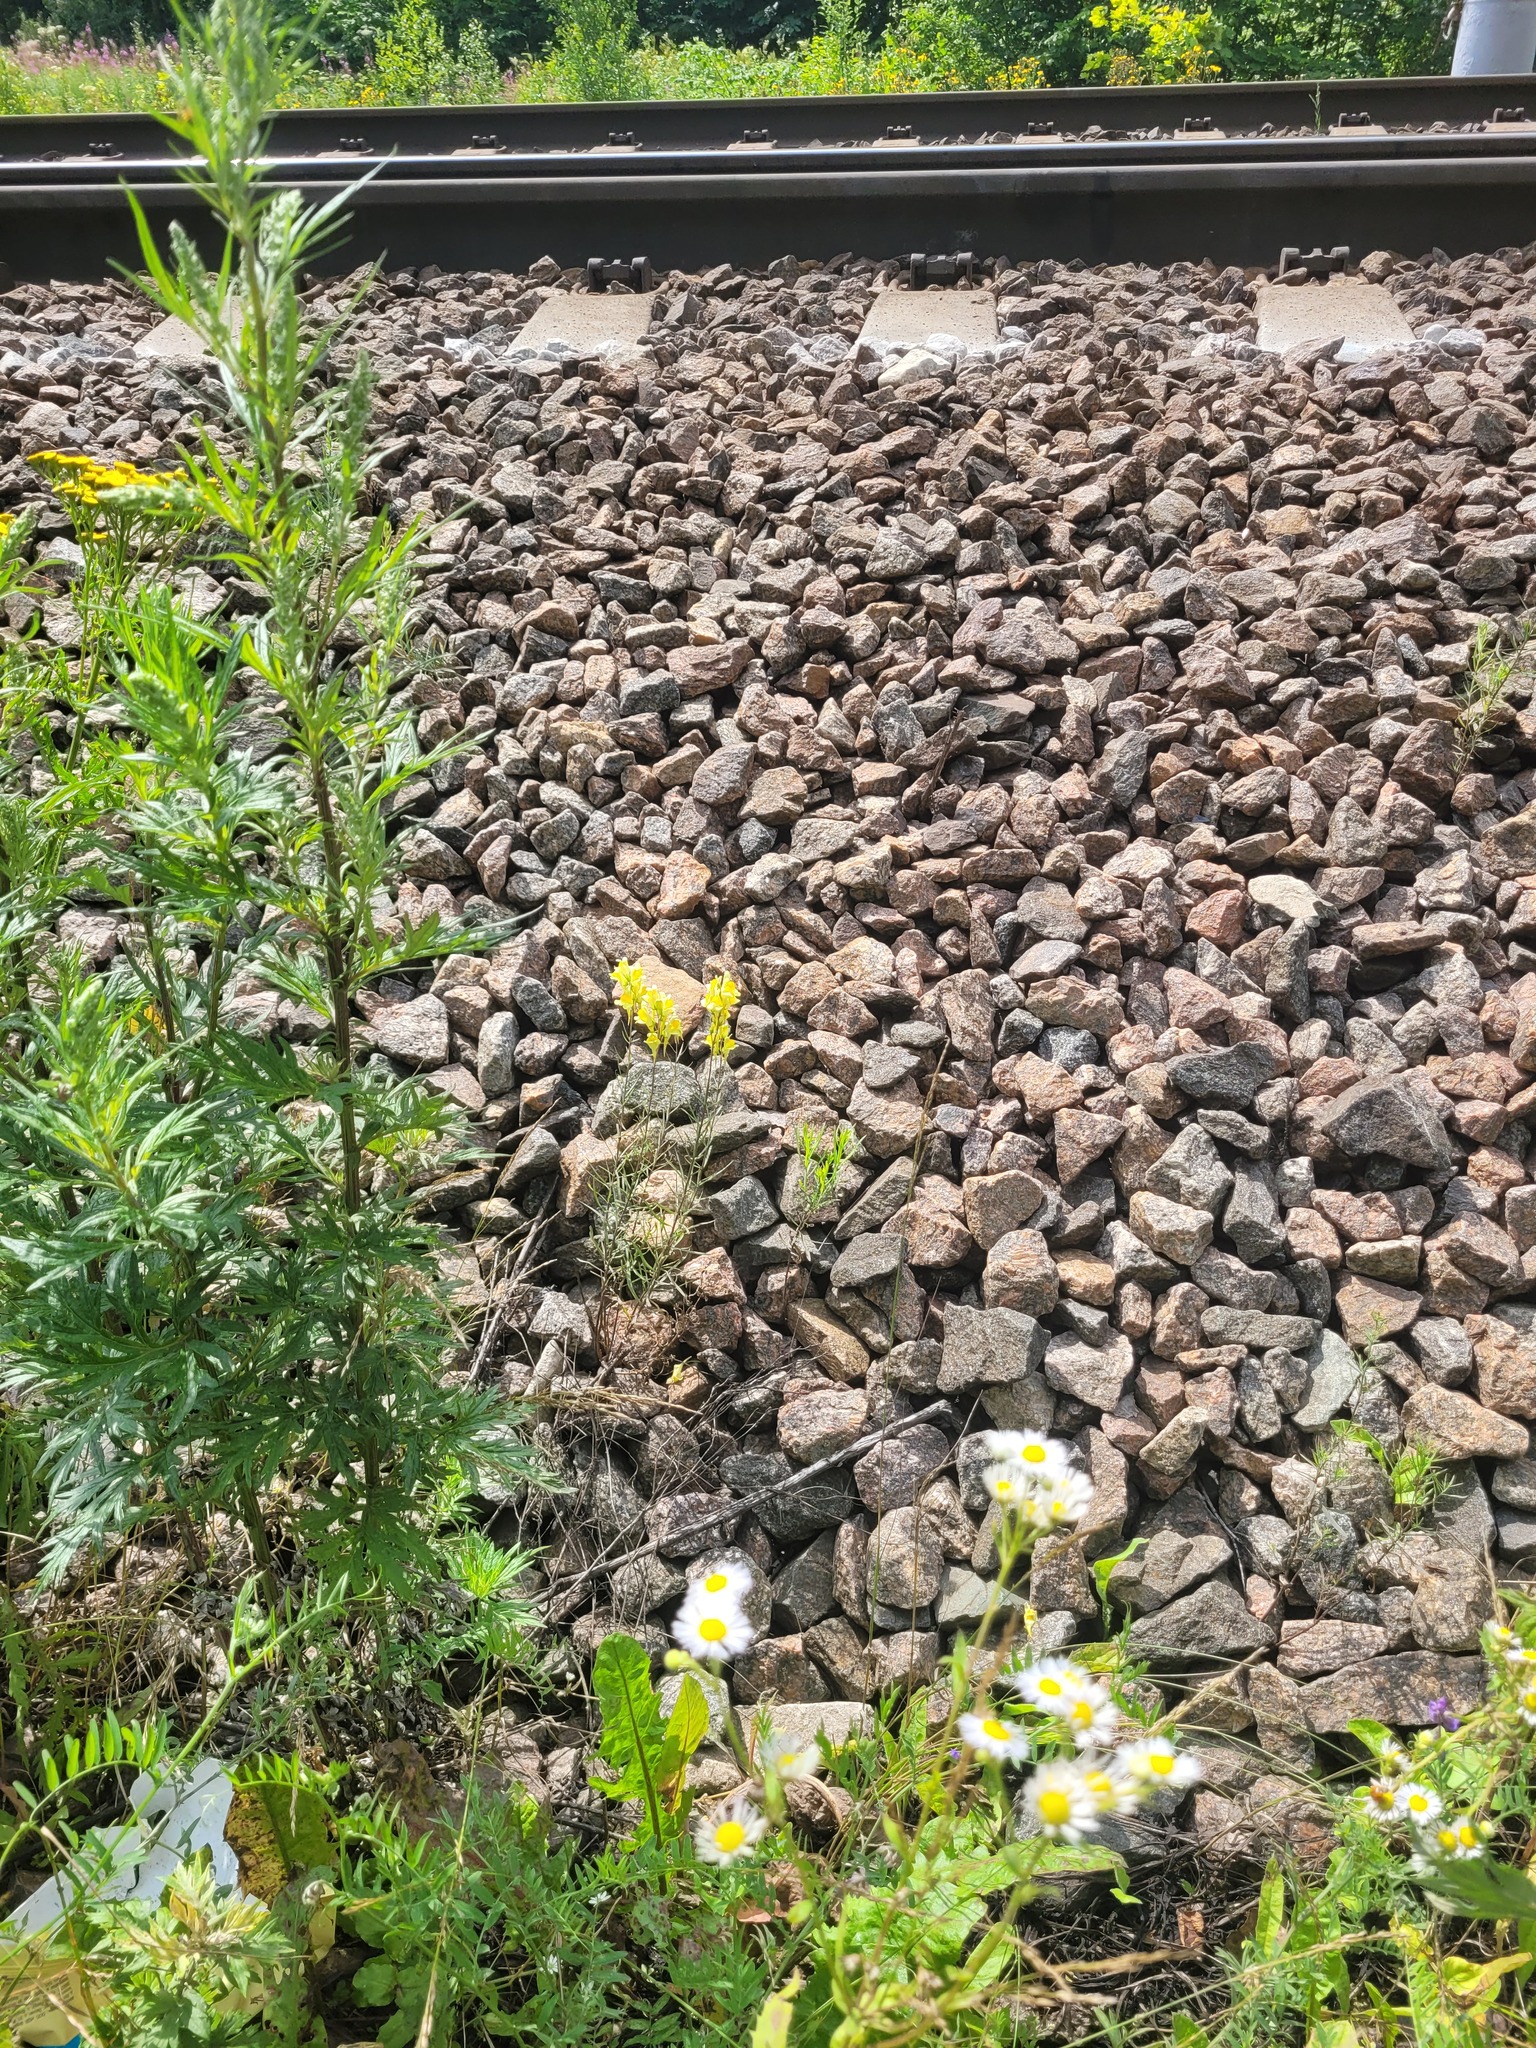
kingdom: Plantae
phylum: Tracheophyta
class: Magnoliopsida
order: Lamiales
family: Plantaginaceae
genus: Linaria
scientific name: Linaria vulgaris
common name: Butter and eggs
